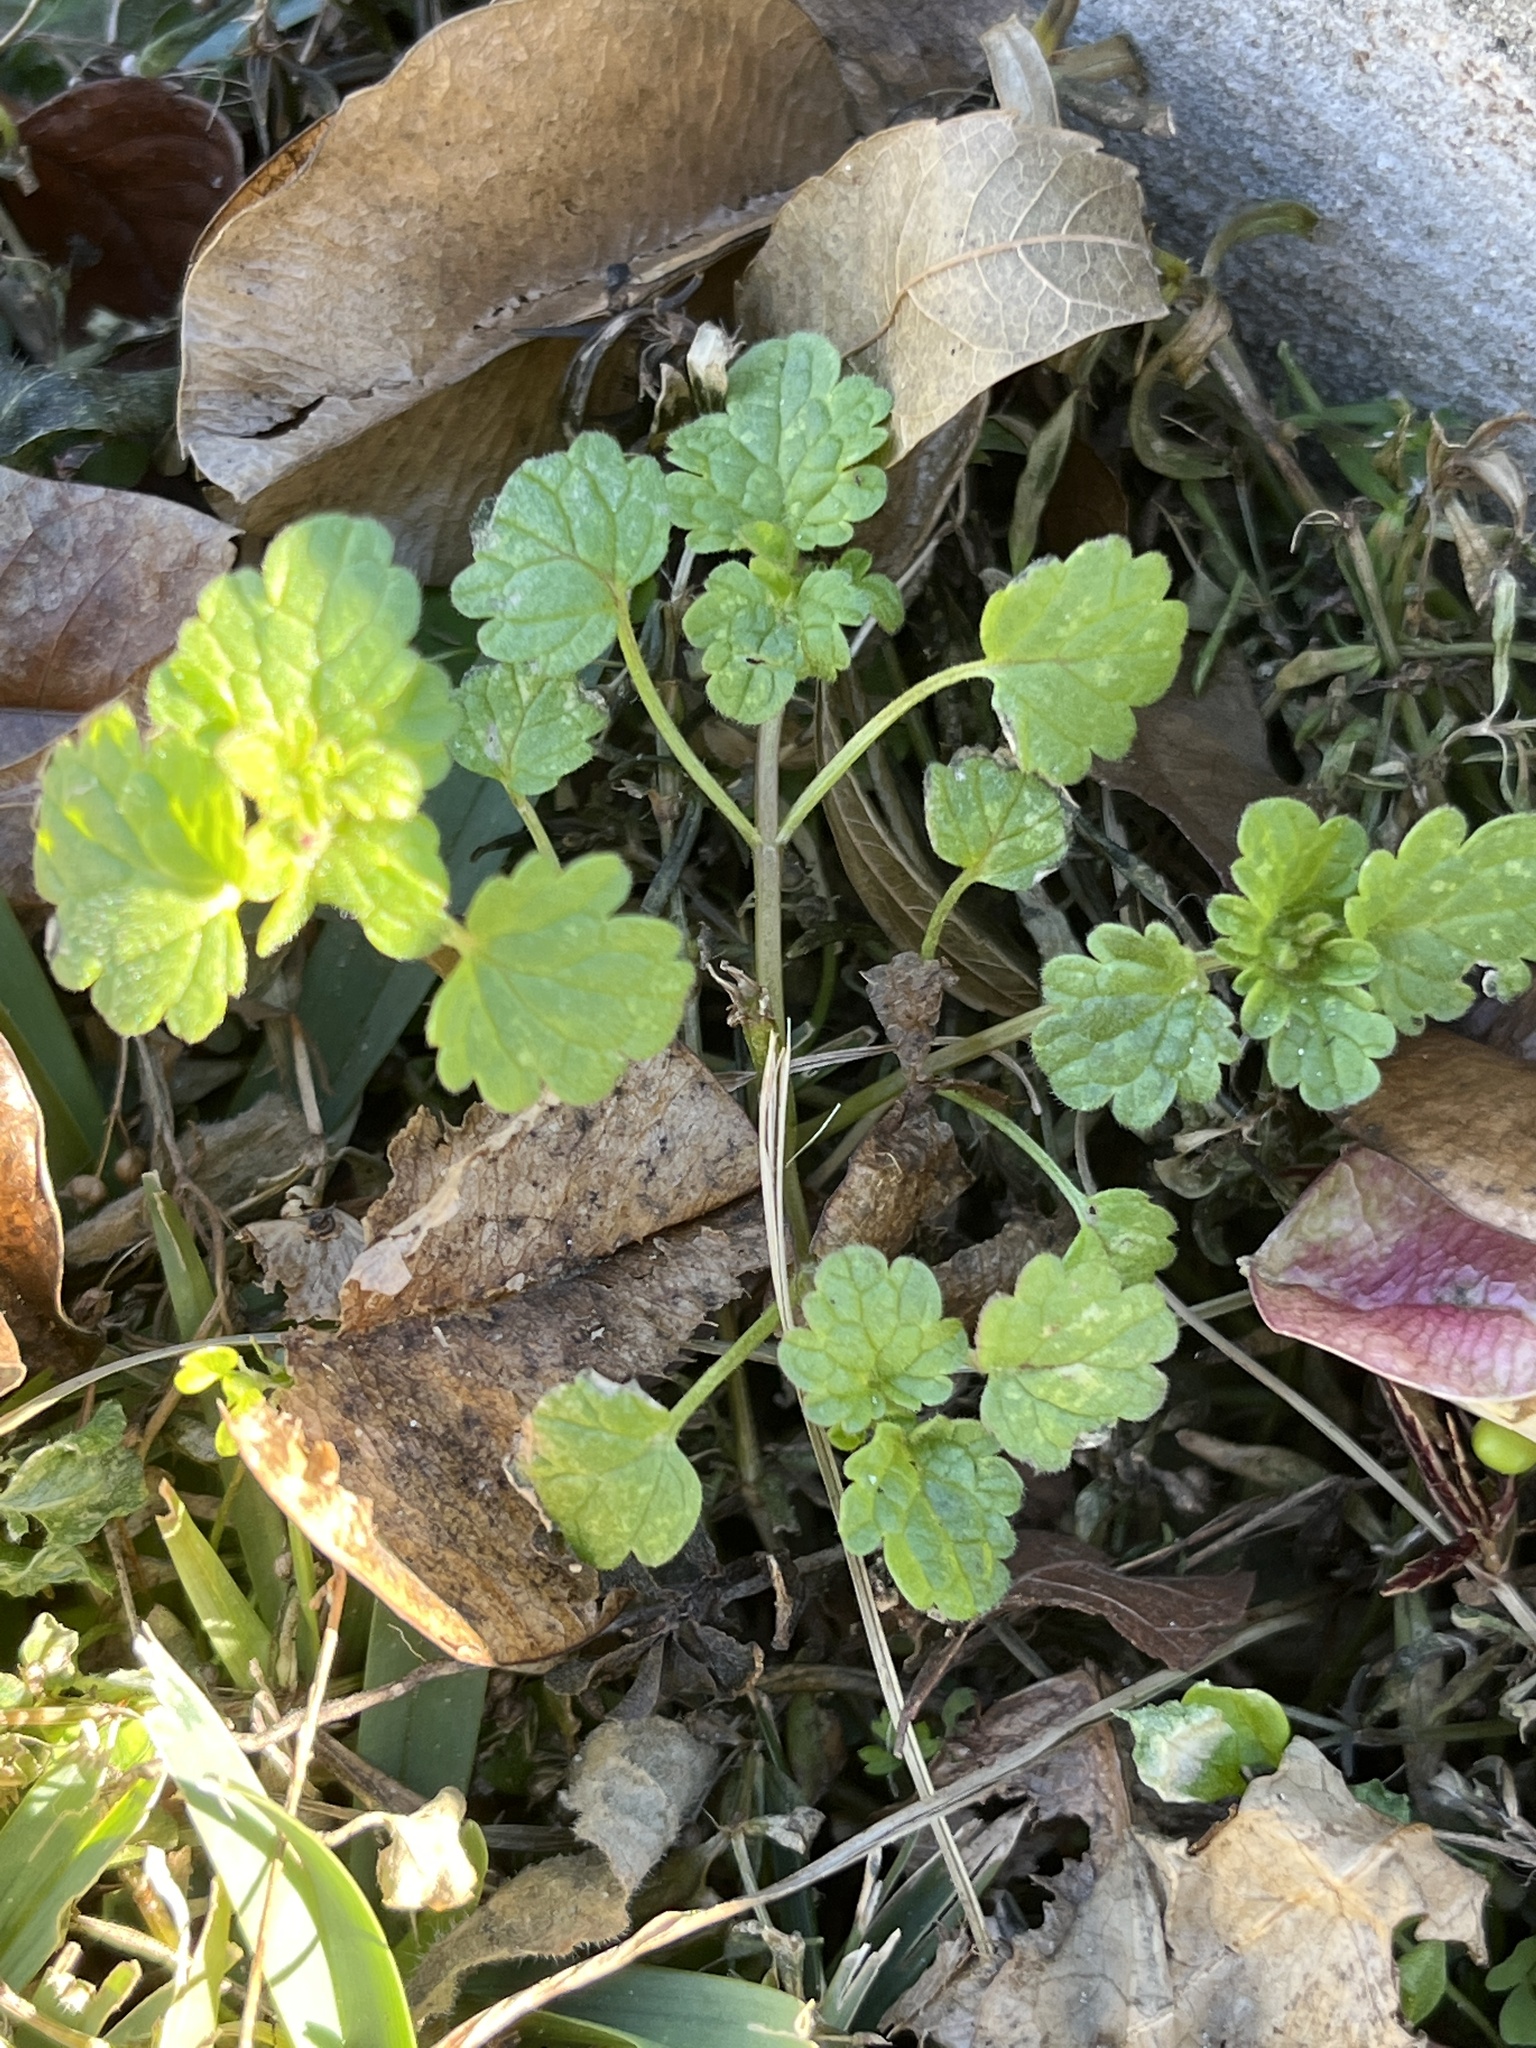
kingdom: Plantae
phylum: Tracheophyta
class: Magnoliopsida
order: Lamiales
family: Lamiaceae
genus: Lamium
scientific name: Lamium amplexicaule
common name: Henbit dead-nettle
